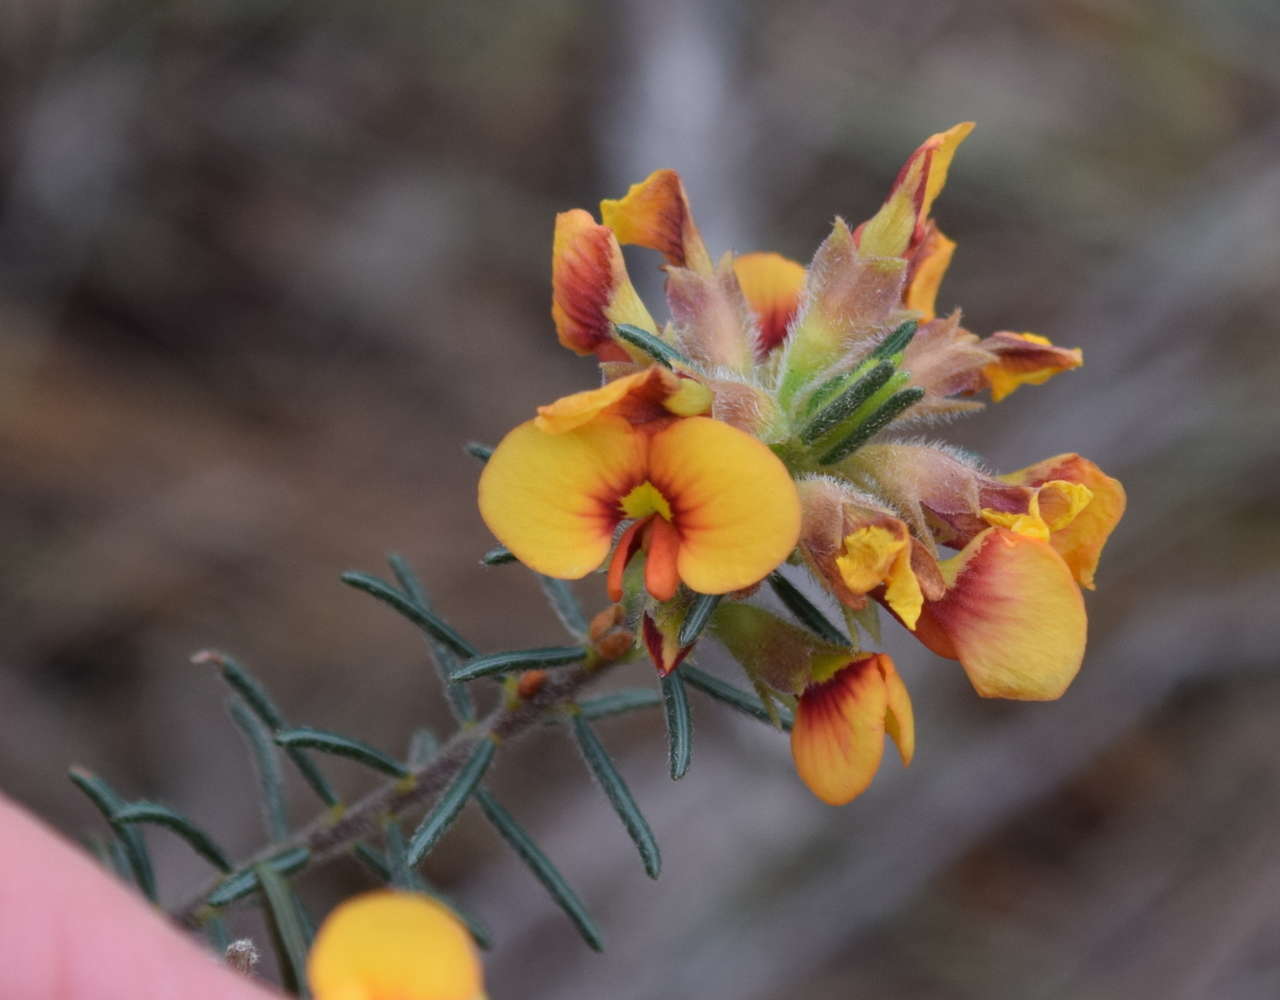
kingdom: Plantae
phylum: Tracheophyta
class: Magnoliopsida
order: Fabales
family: Fabaceae
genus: Dillwynia
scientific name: Dillwynia sericea
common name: Showy parrot-pea
